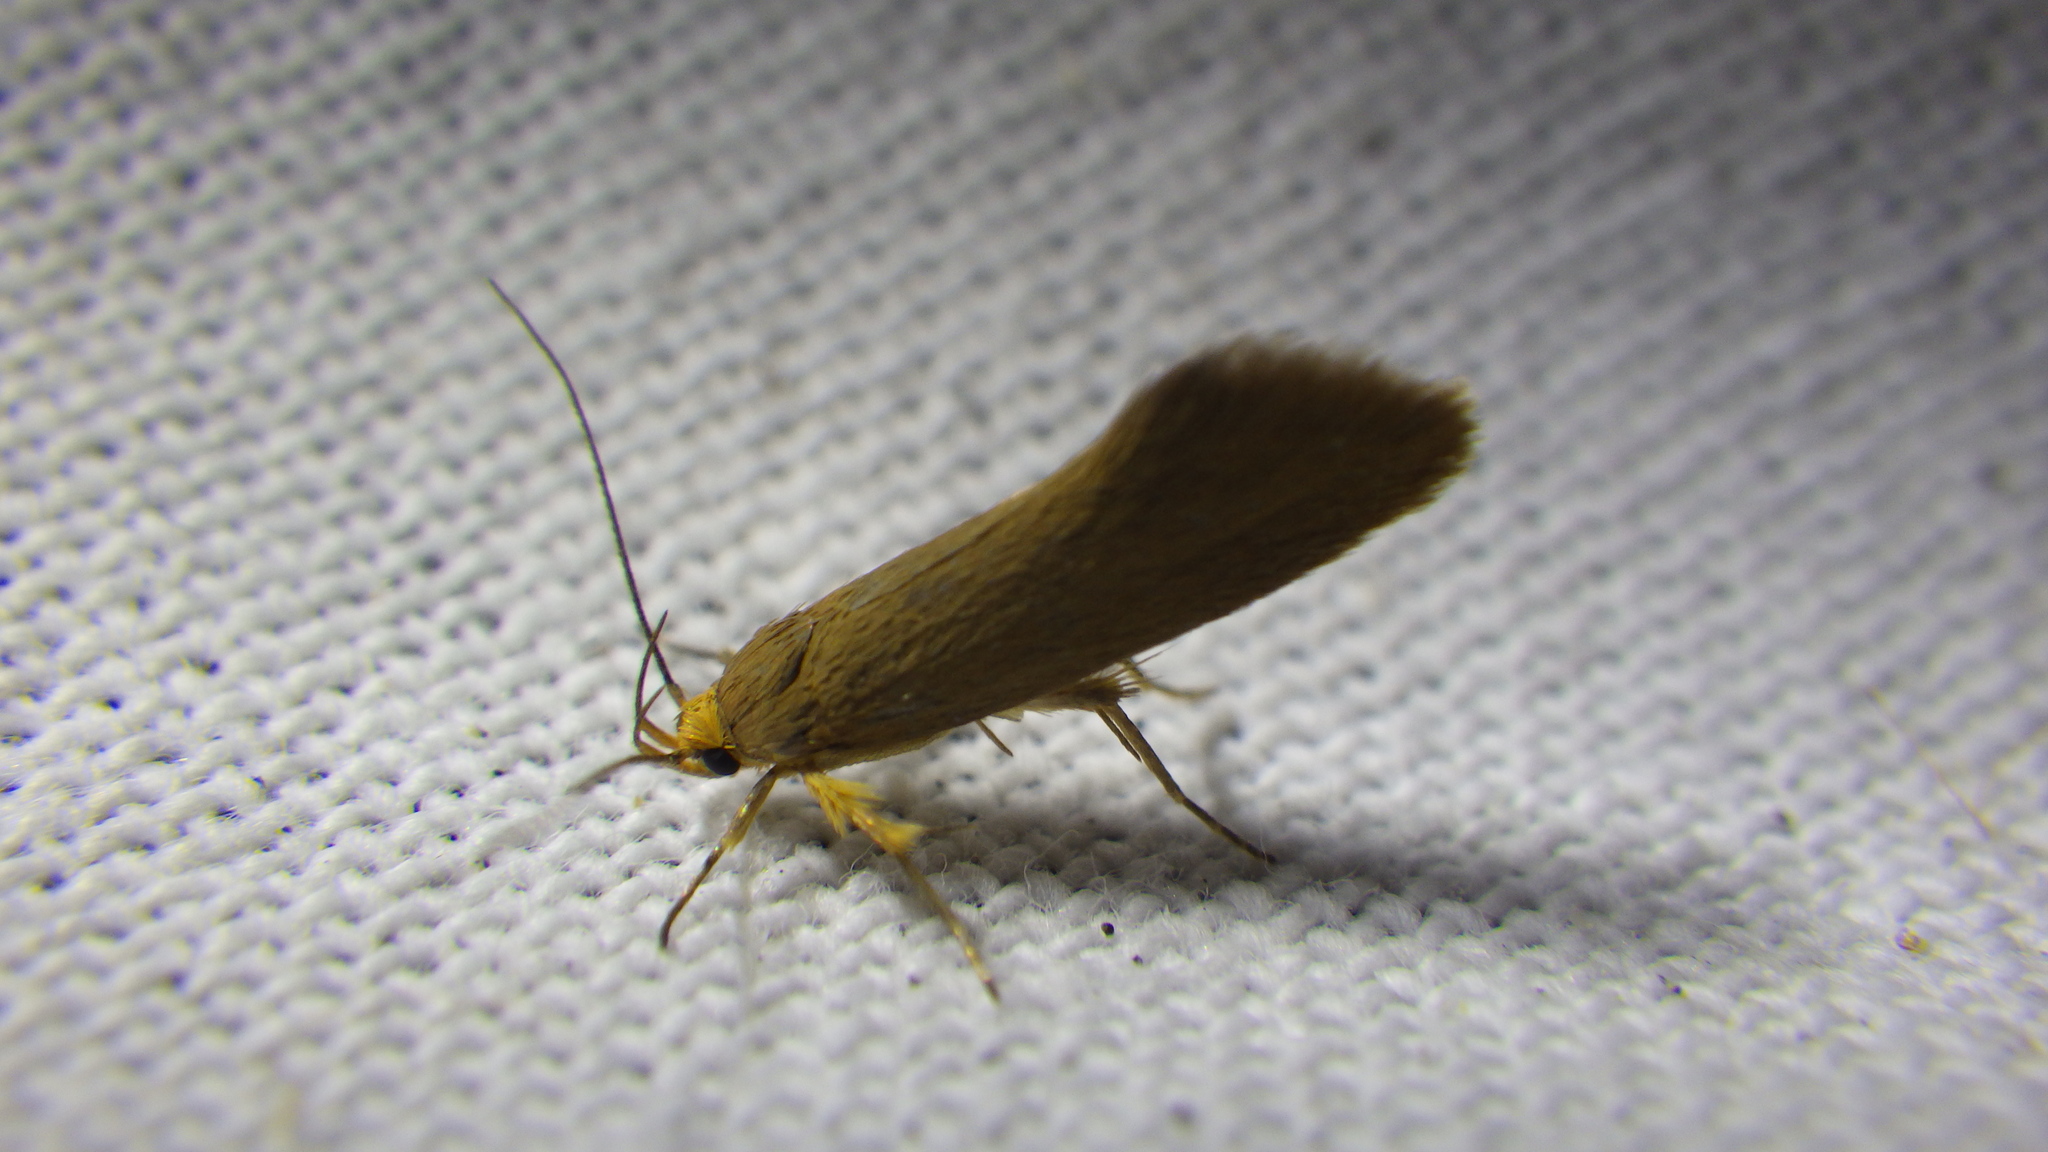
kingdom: Animalia
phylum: Arthropoda
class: Insecta
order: Lepidoptera
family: Oecophoridae
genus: Borkhausenia
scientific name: Borkhausenia Crassa unitella
